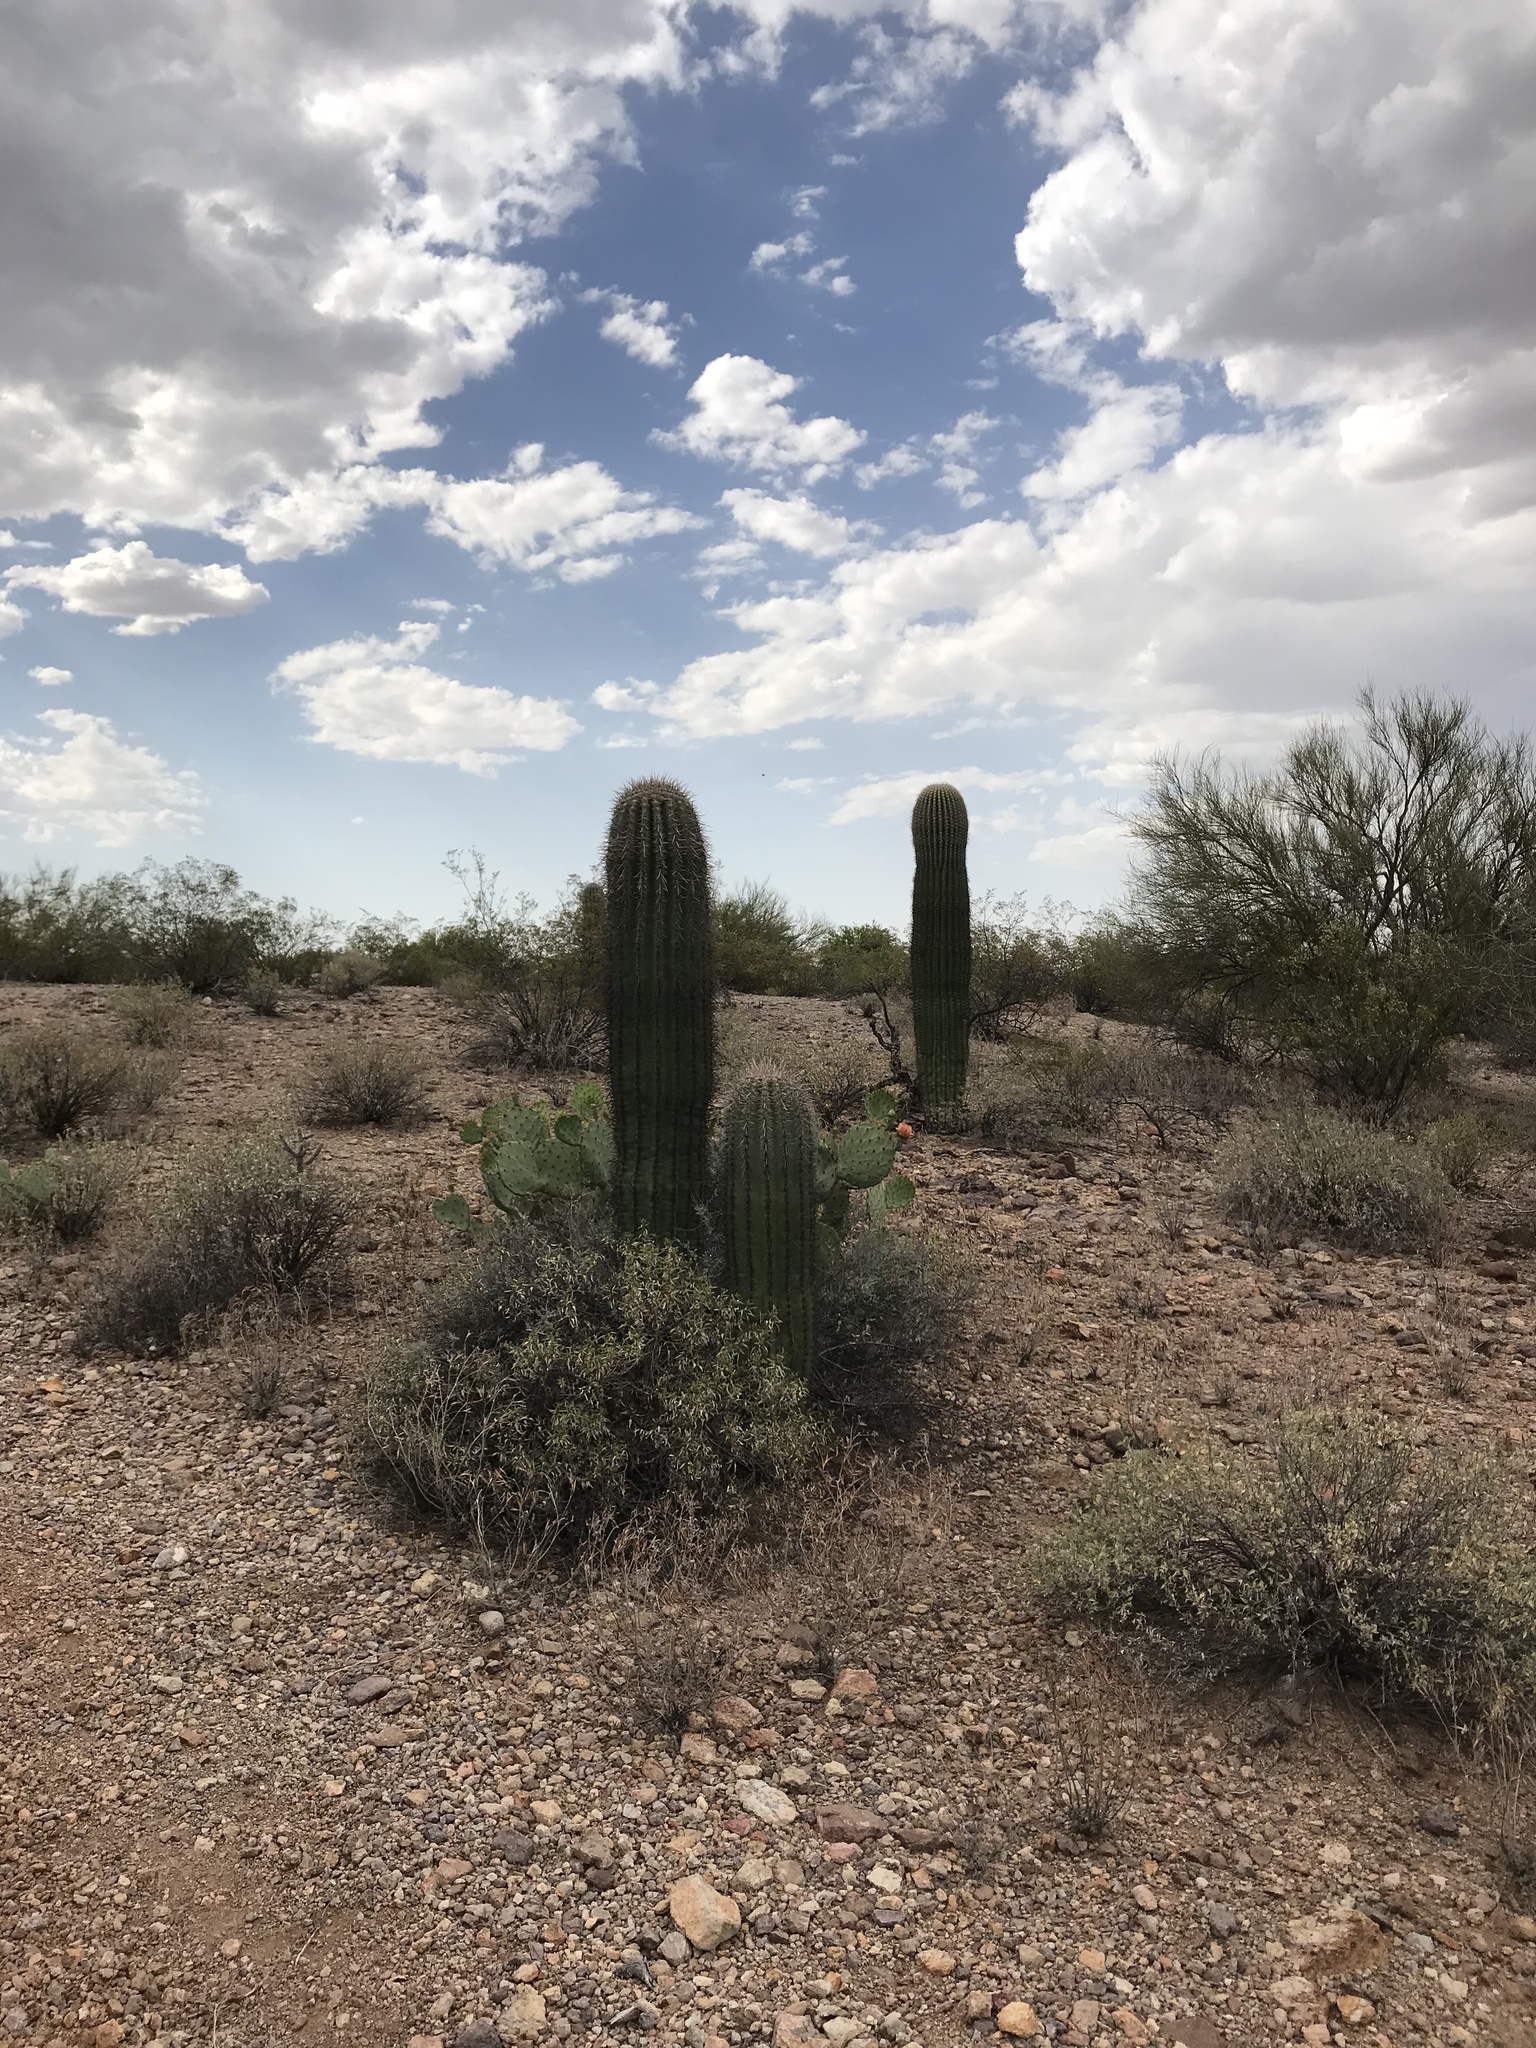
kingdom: Plantae
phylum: Tracheophyta
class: Magnoliopsida
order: Caryophyllales
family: Cactaceae
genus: Carnegiea
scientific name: Carnegiea gigantea
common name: Saguaro
